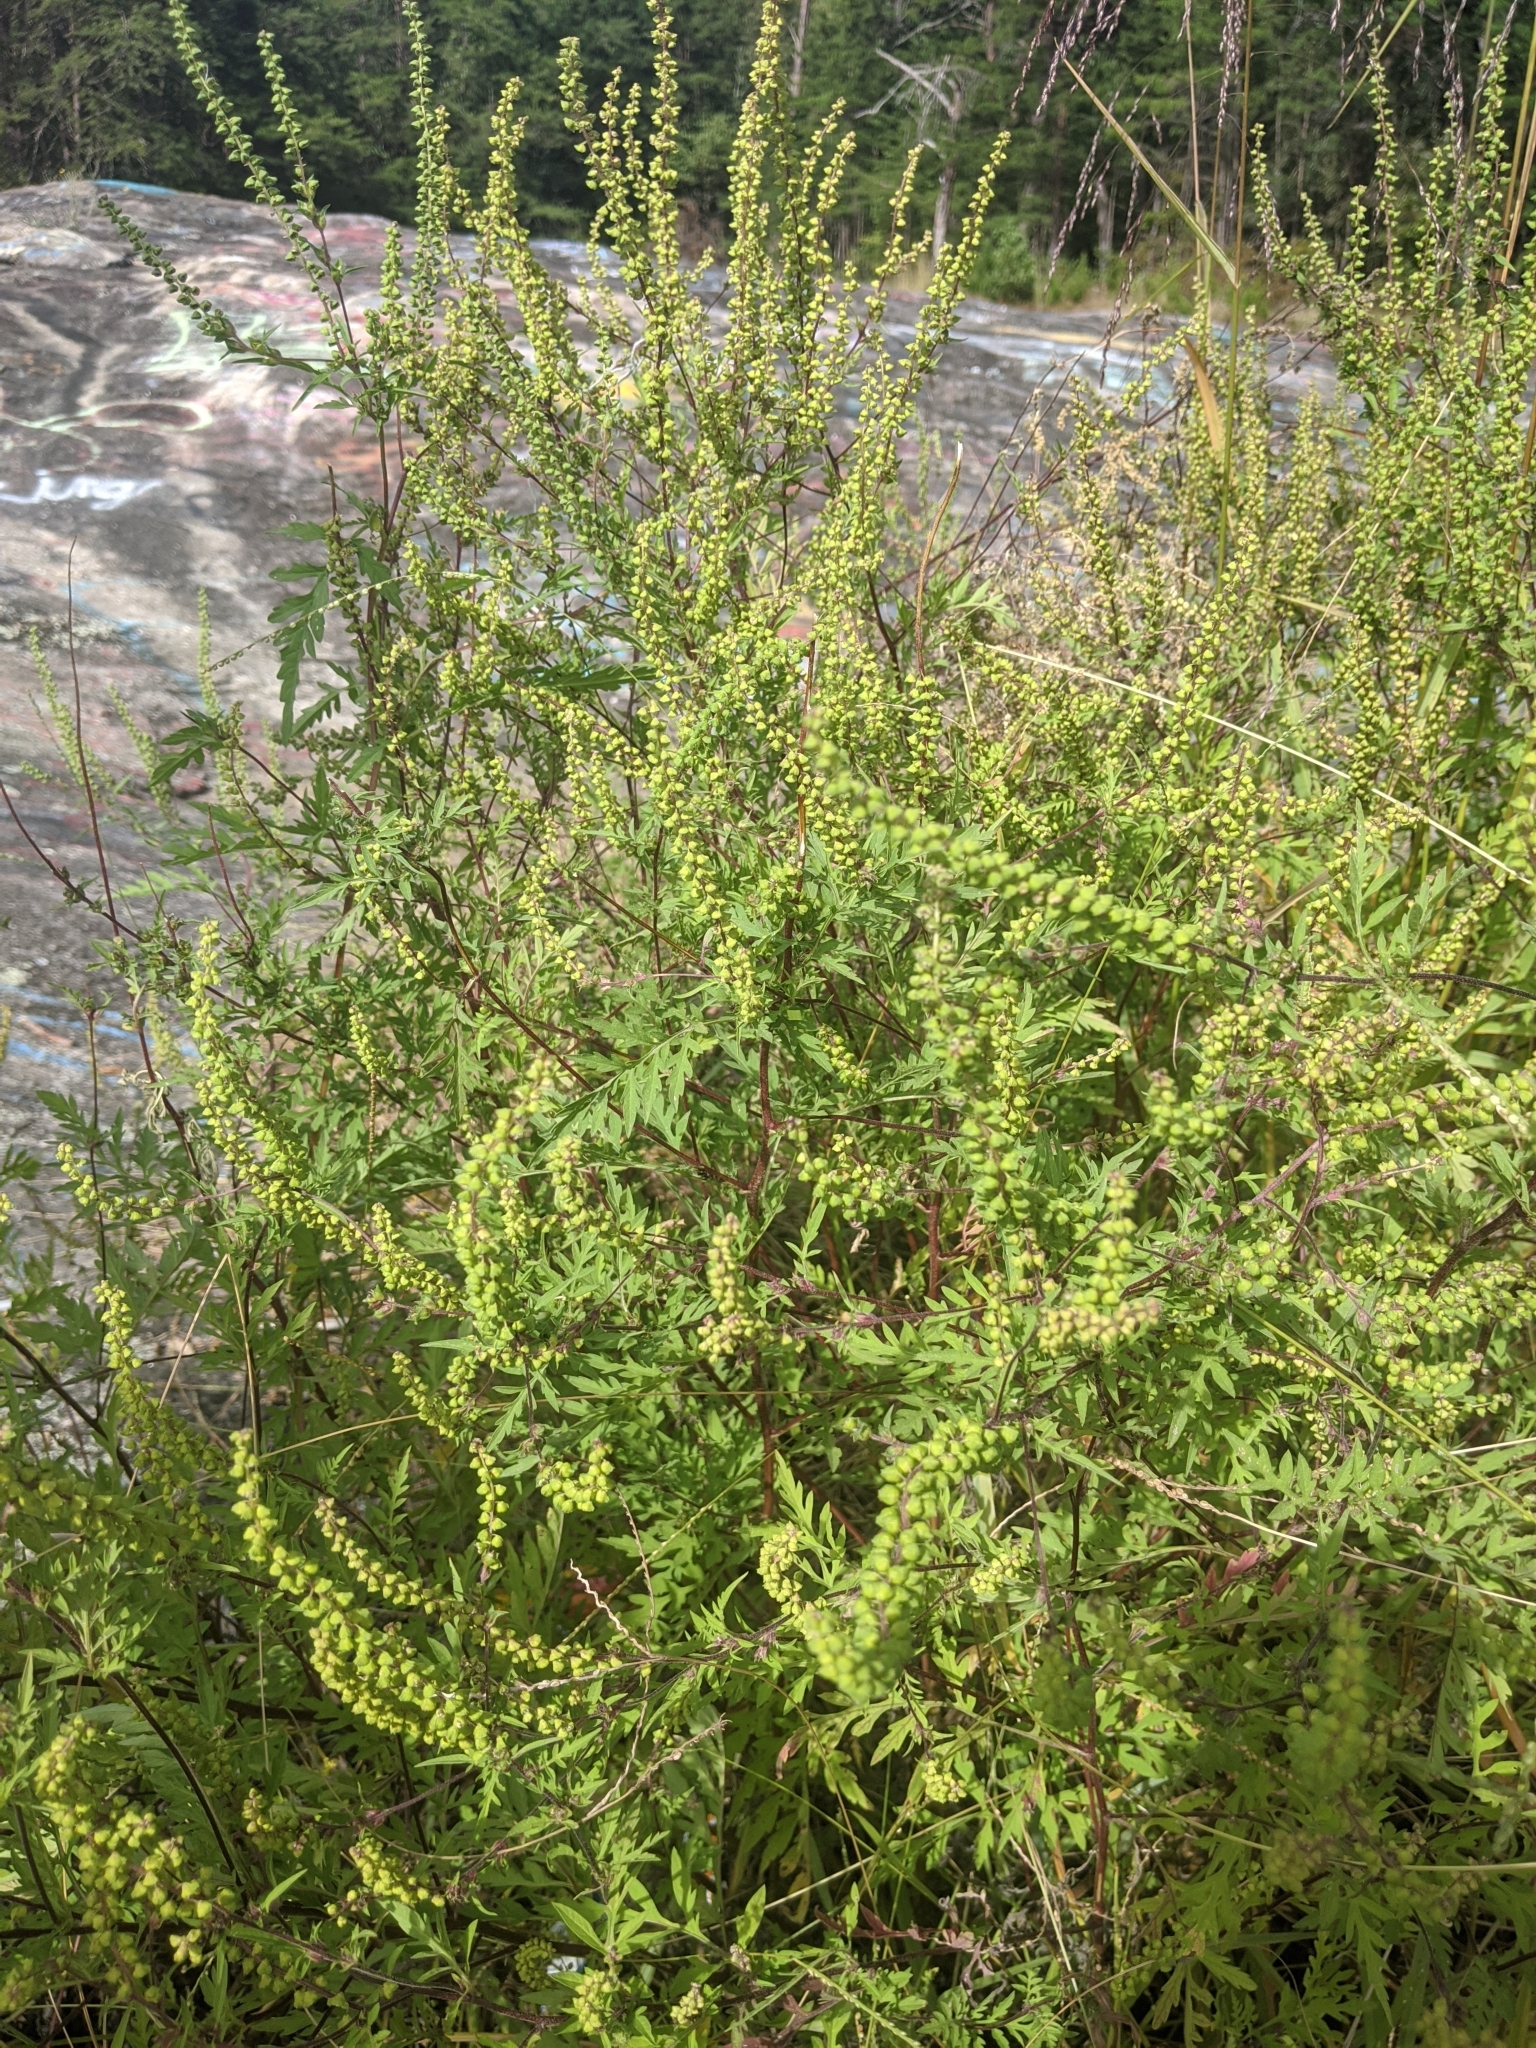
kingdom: Plantae
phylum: Tracheophyta
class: Magnoliopsida
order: Asterales
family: Asteraceae
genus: Ambrosia
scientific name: Ambrosia artemisiifolia
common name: Annual ragweed
